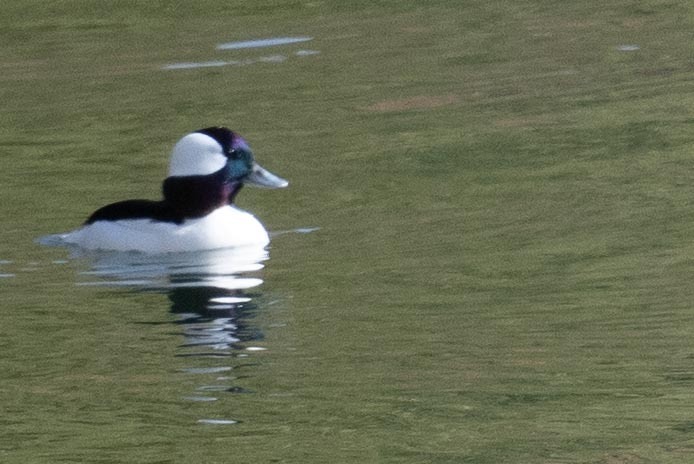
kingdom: Animalia
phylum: Chordata
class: Aves
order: Anseriformes
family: Anatidae
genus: Bucephala
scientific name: Bucephala albeola
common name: Bufflehead
